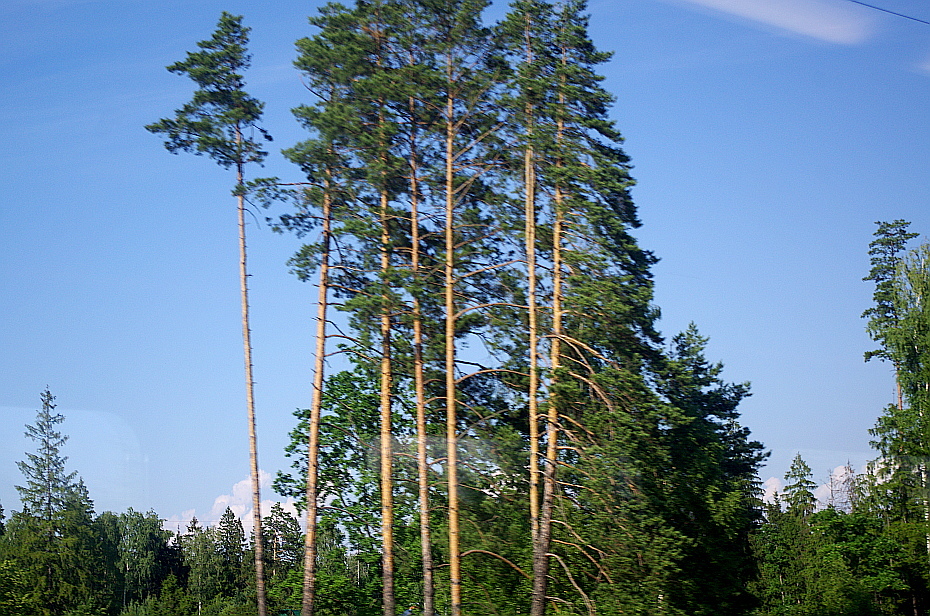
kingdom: Plantae
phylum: Tracheophyta
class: Pinopsida
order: Pinales
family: Pinaceae
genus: Pinus
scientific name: Pinus sylvestris
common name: Scots pine
